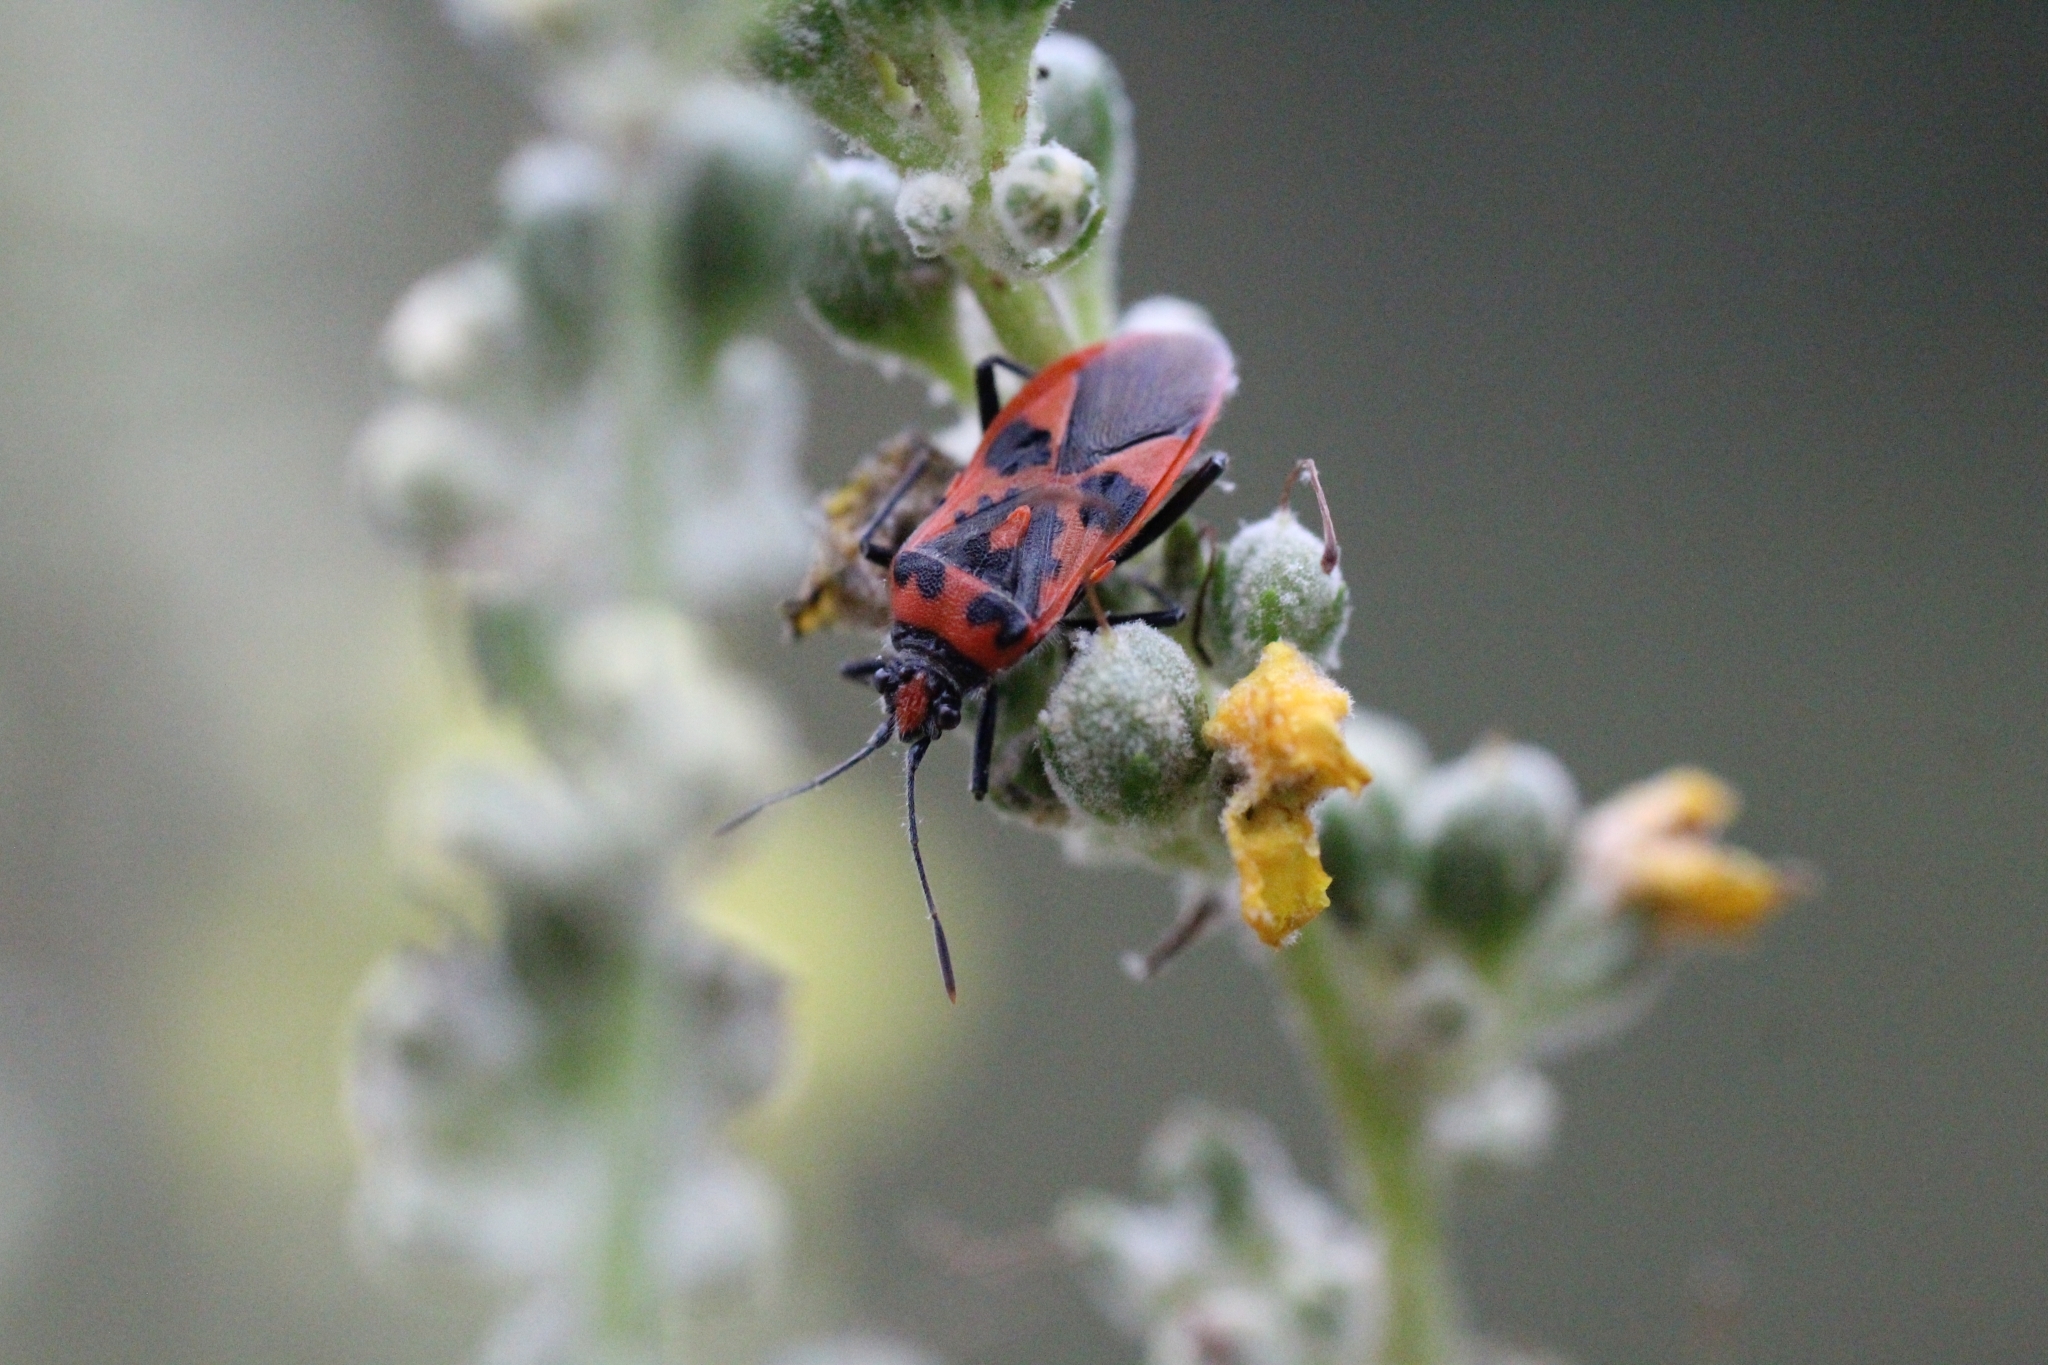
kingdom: Animalia
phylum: Arthropoda
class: Insecta
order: Hemiptera
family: Rhopalidae
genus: Corizus
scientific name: Corizus hyoscyami
